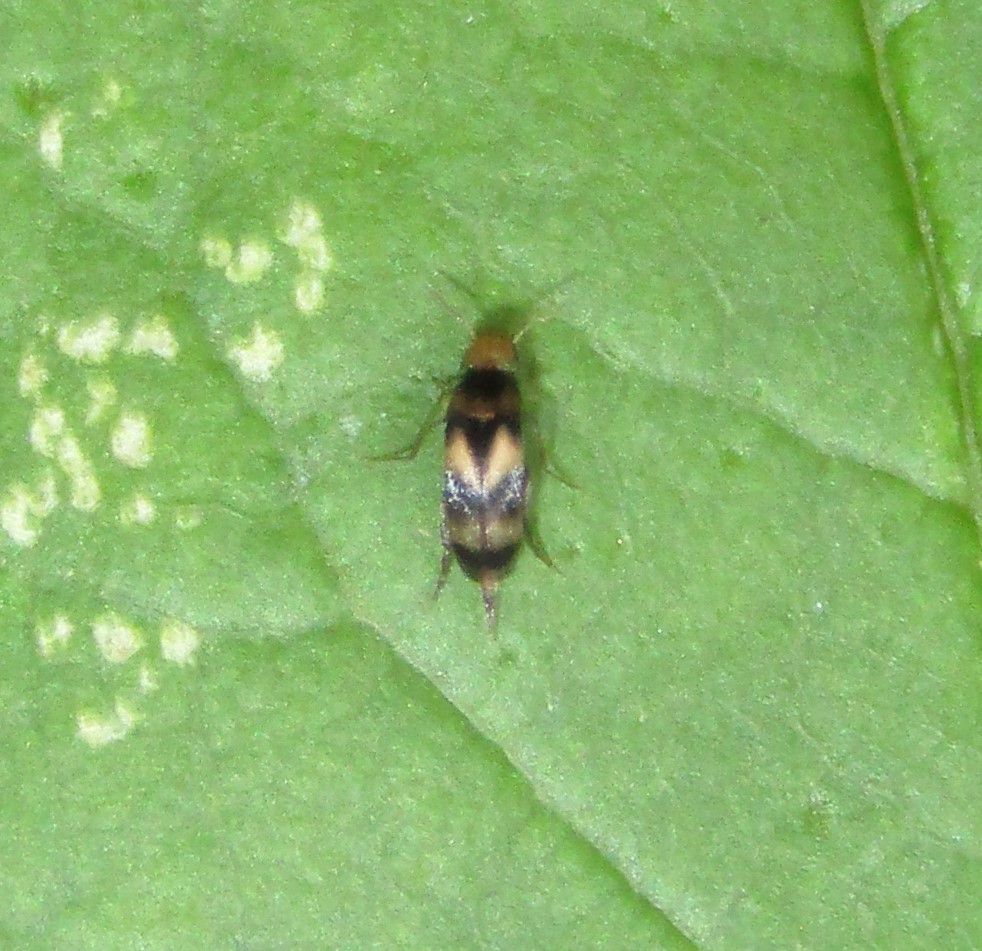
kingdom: Animalia
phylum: Arthropoda
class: Insecta
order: Coleoptera
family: Mordellidae
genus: Mordellistena
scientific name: Mordellistena trifasciata
